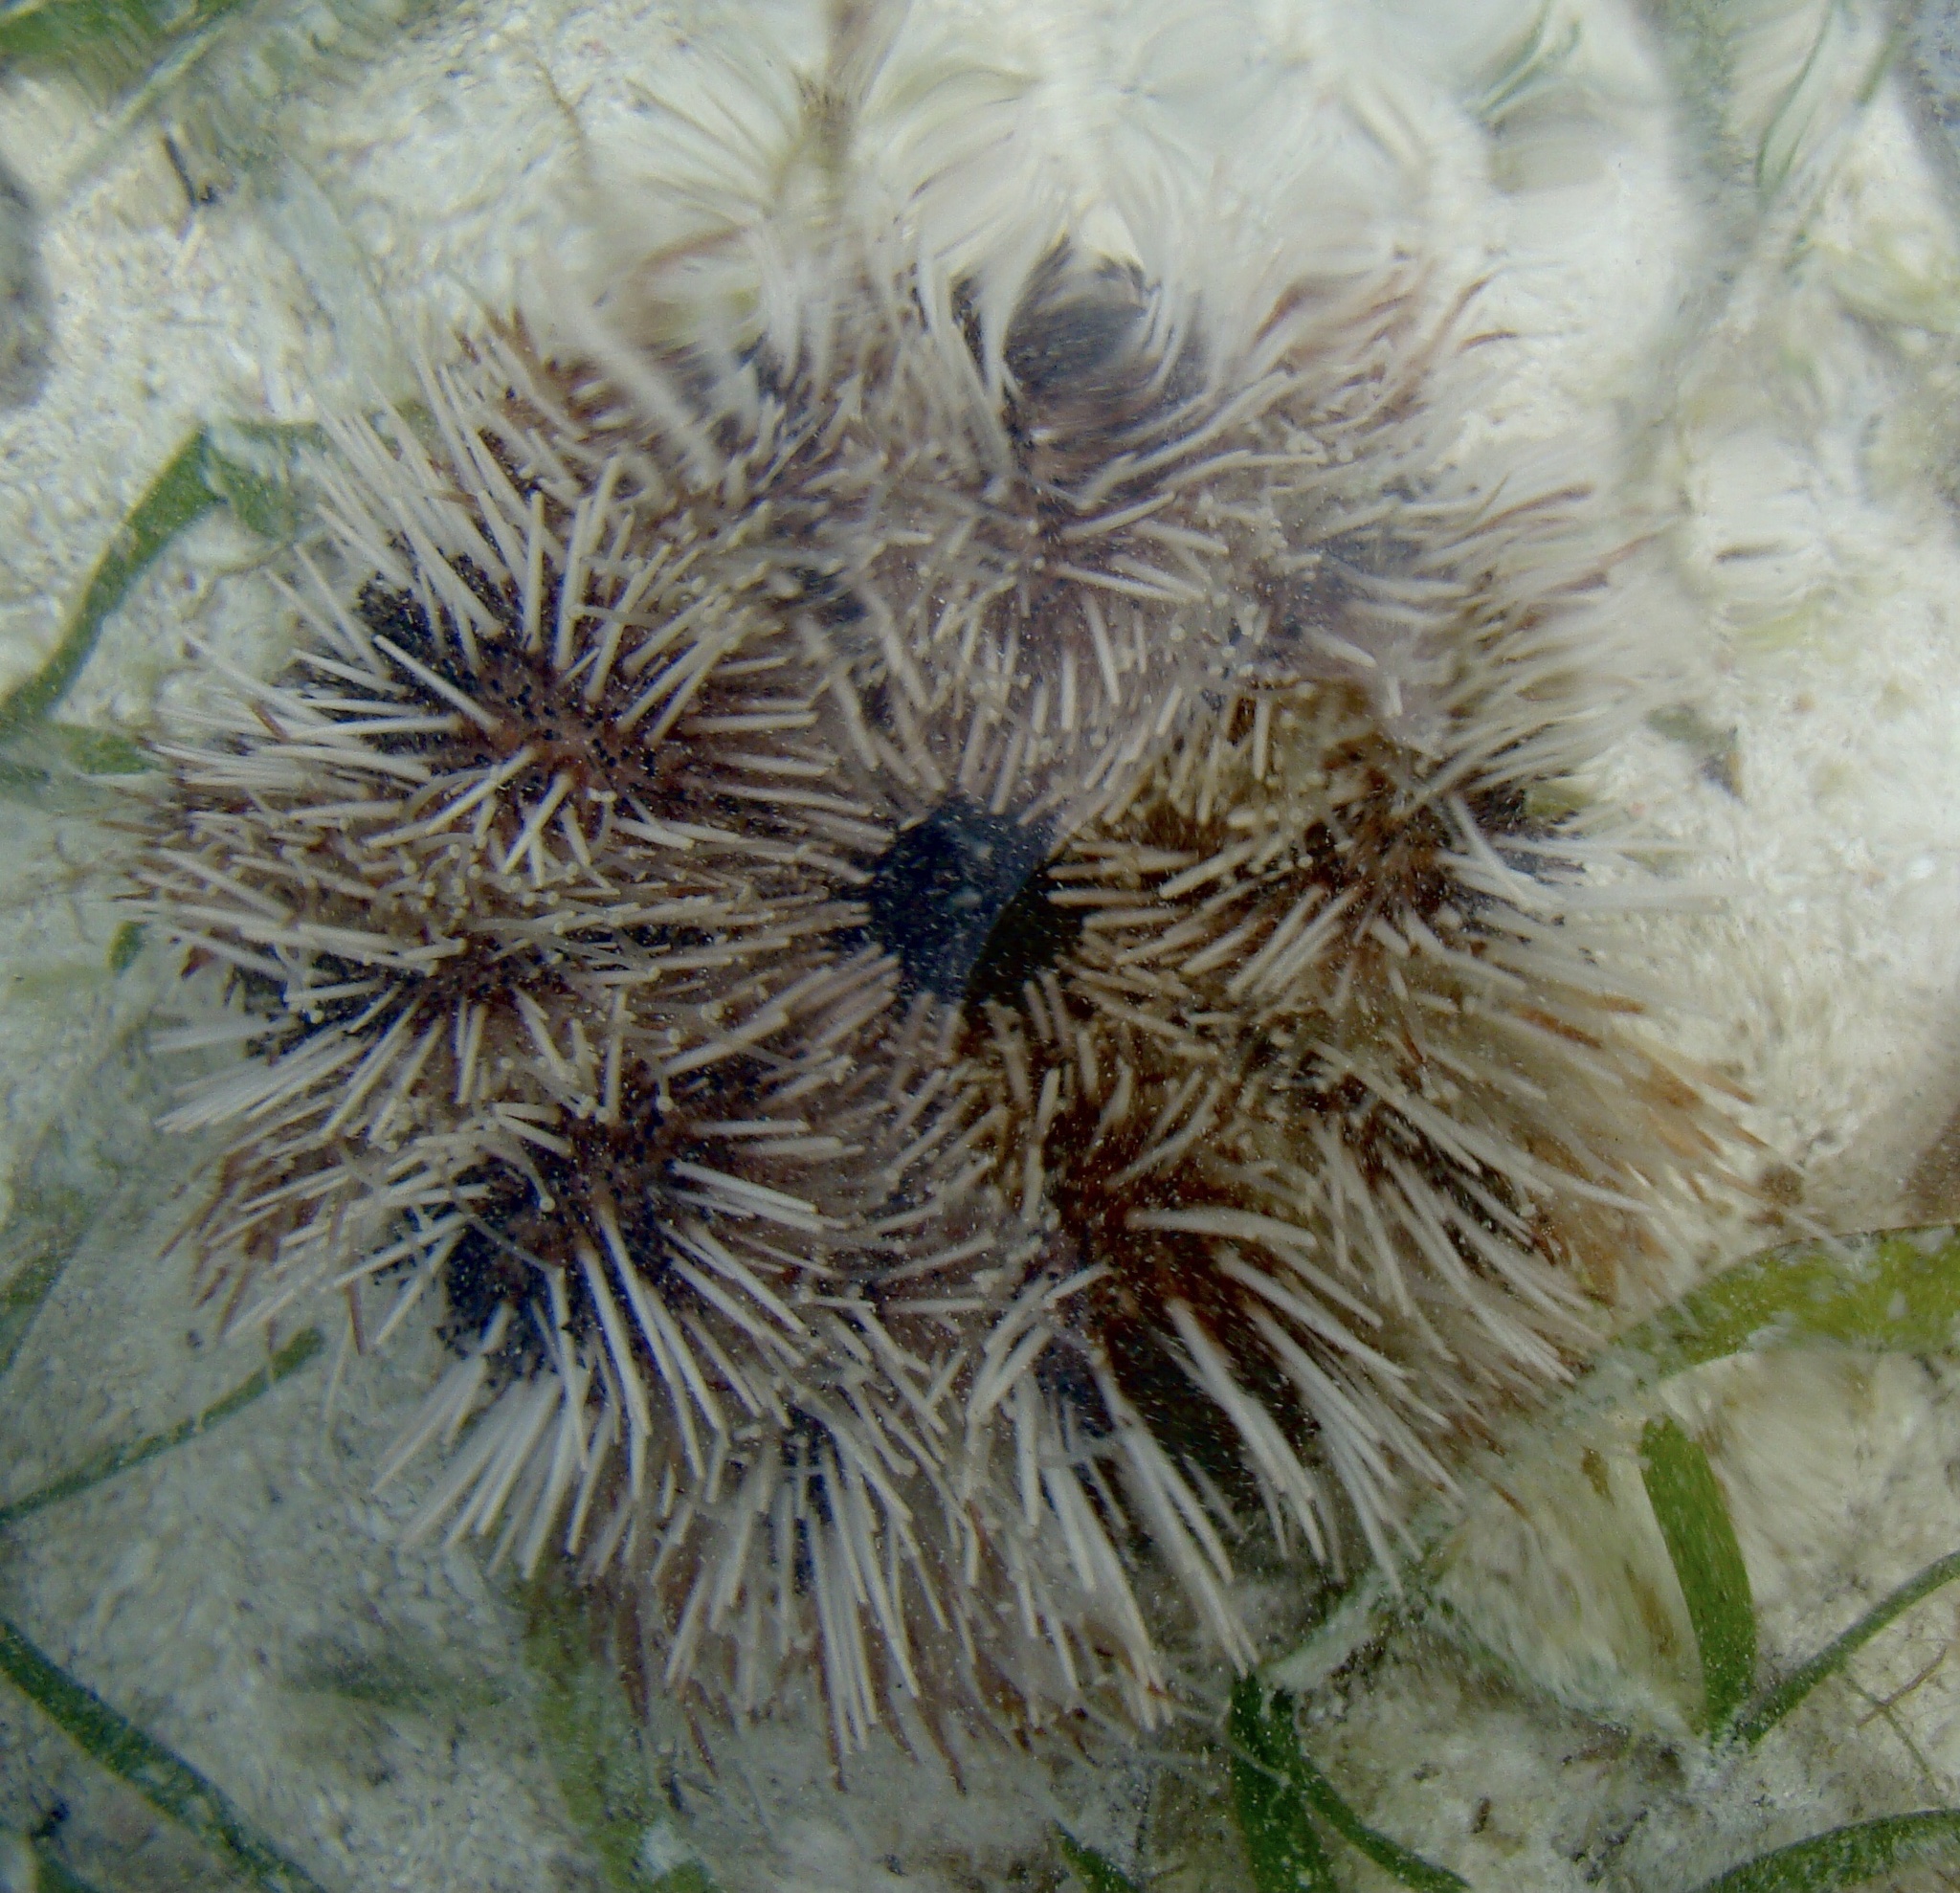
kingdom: Animalia
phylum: Echinodermata
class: Echinoidea
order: Camarodonta
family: Toxopneustidae
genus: Tripneustes
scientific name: Tripneustes gratilla
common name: Bischofsmützenseeigel
